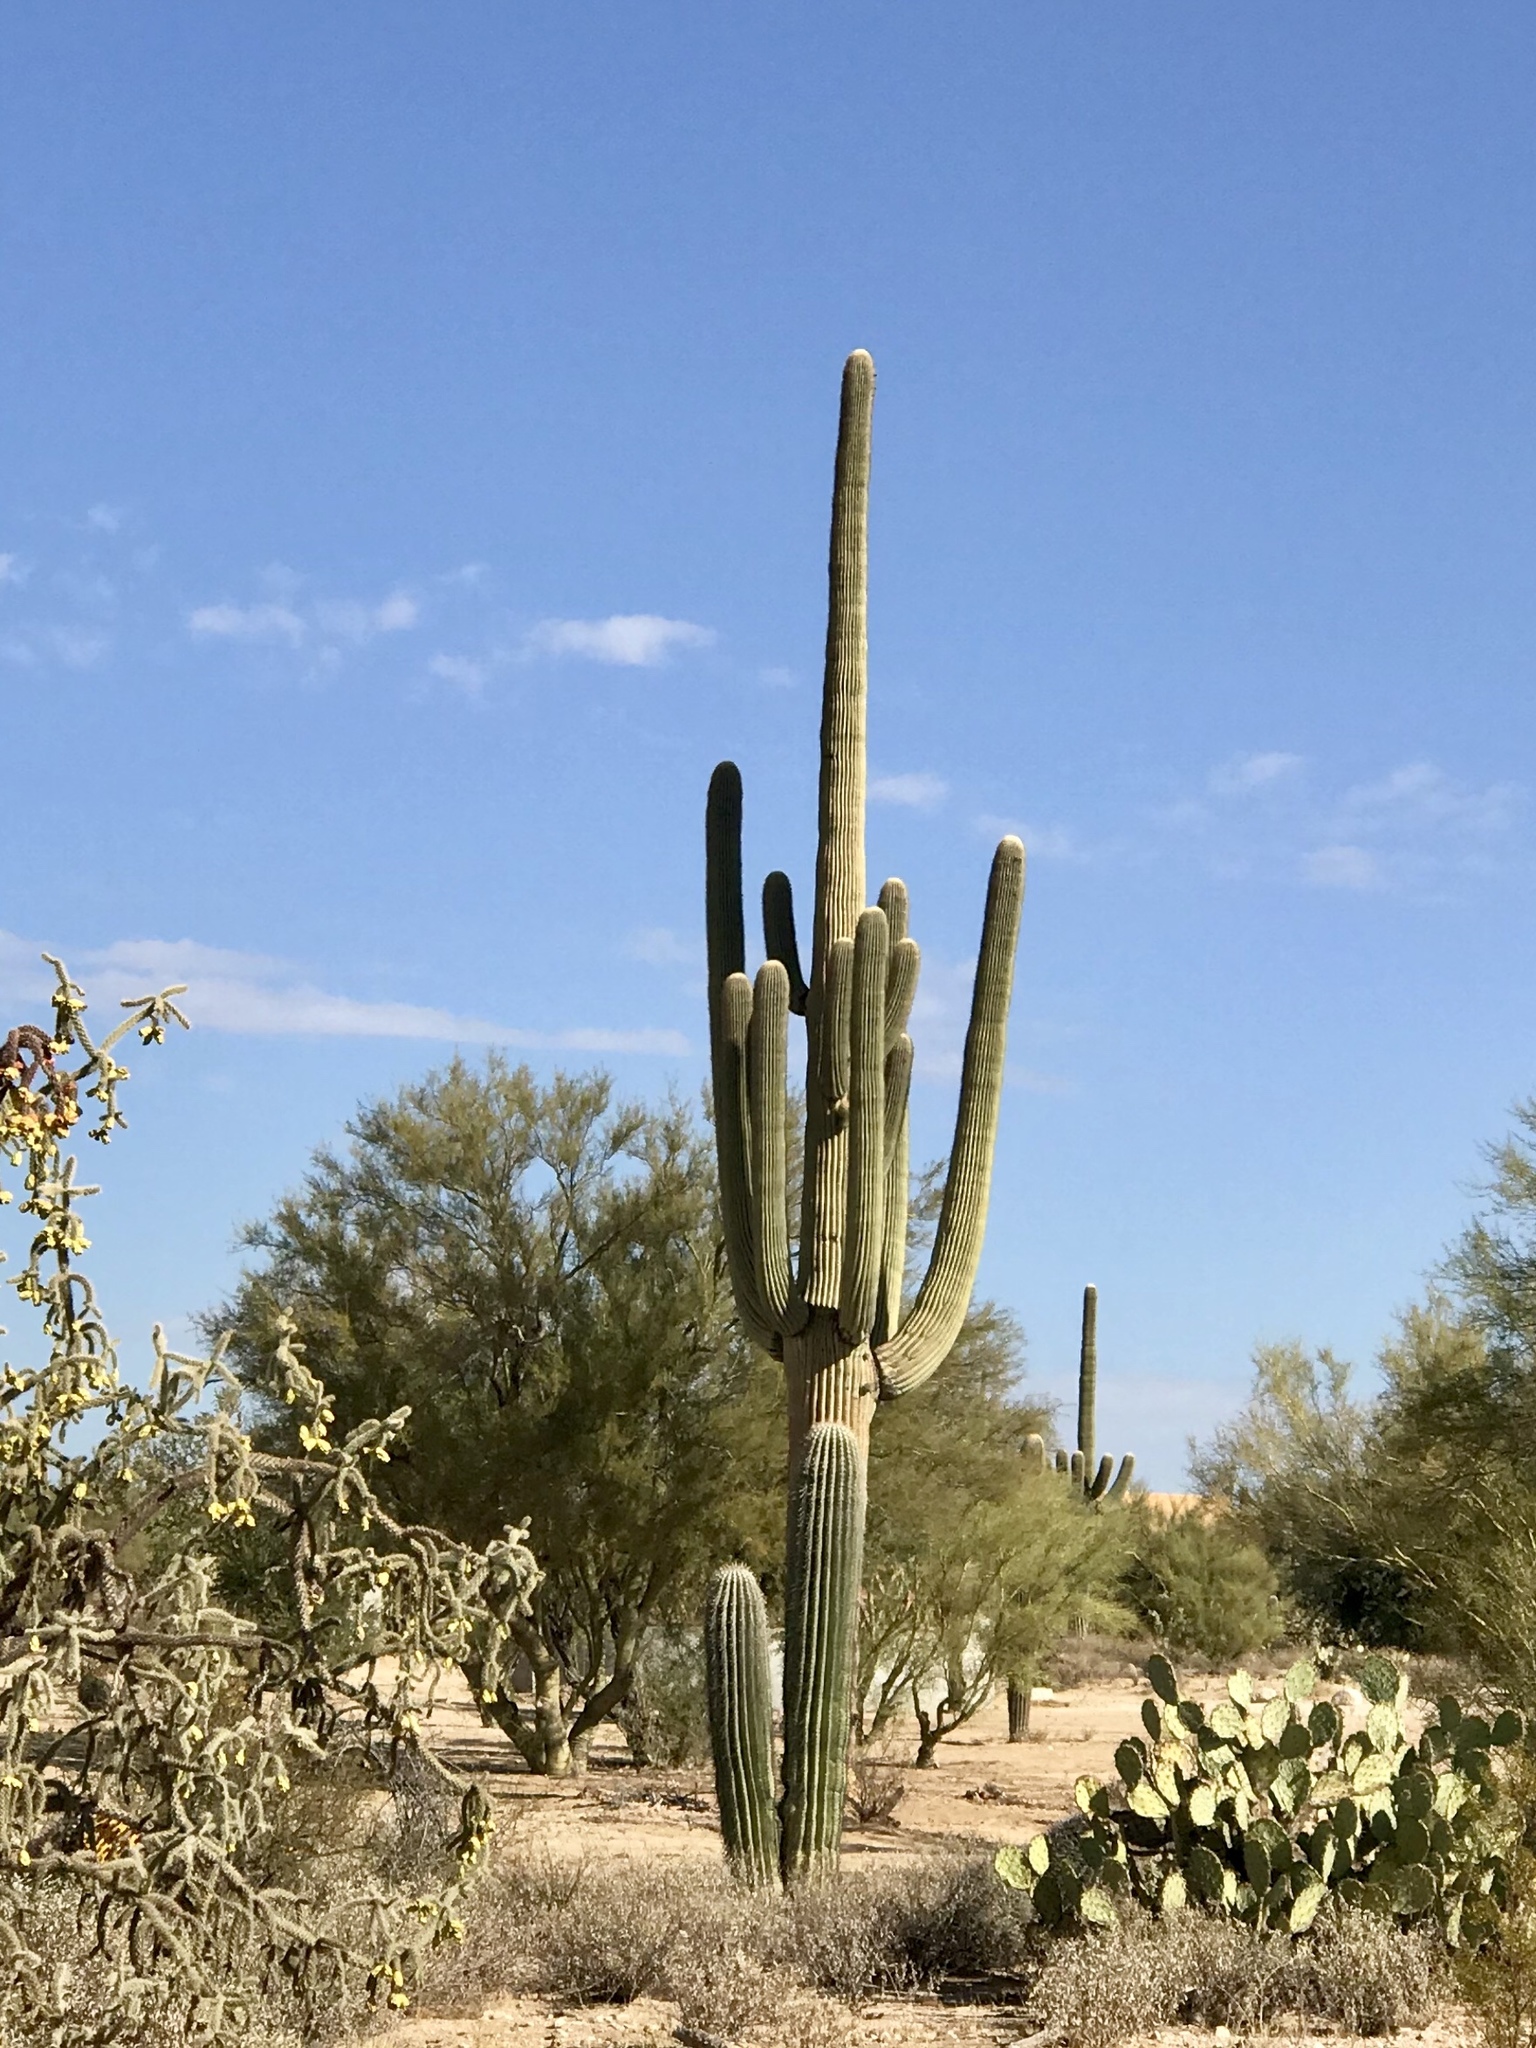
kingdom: Plantae
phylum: Tracheophyta
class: Magnoliopsida
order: Caryophyllales
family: Cactaceae
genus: Carnegiea
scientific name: Carnegiea gigantea
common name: Saguaro
